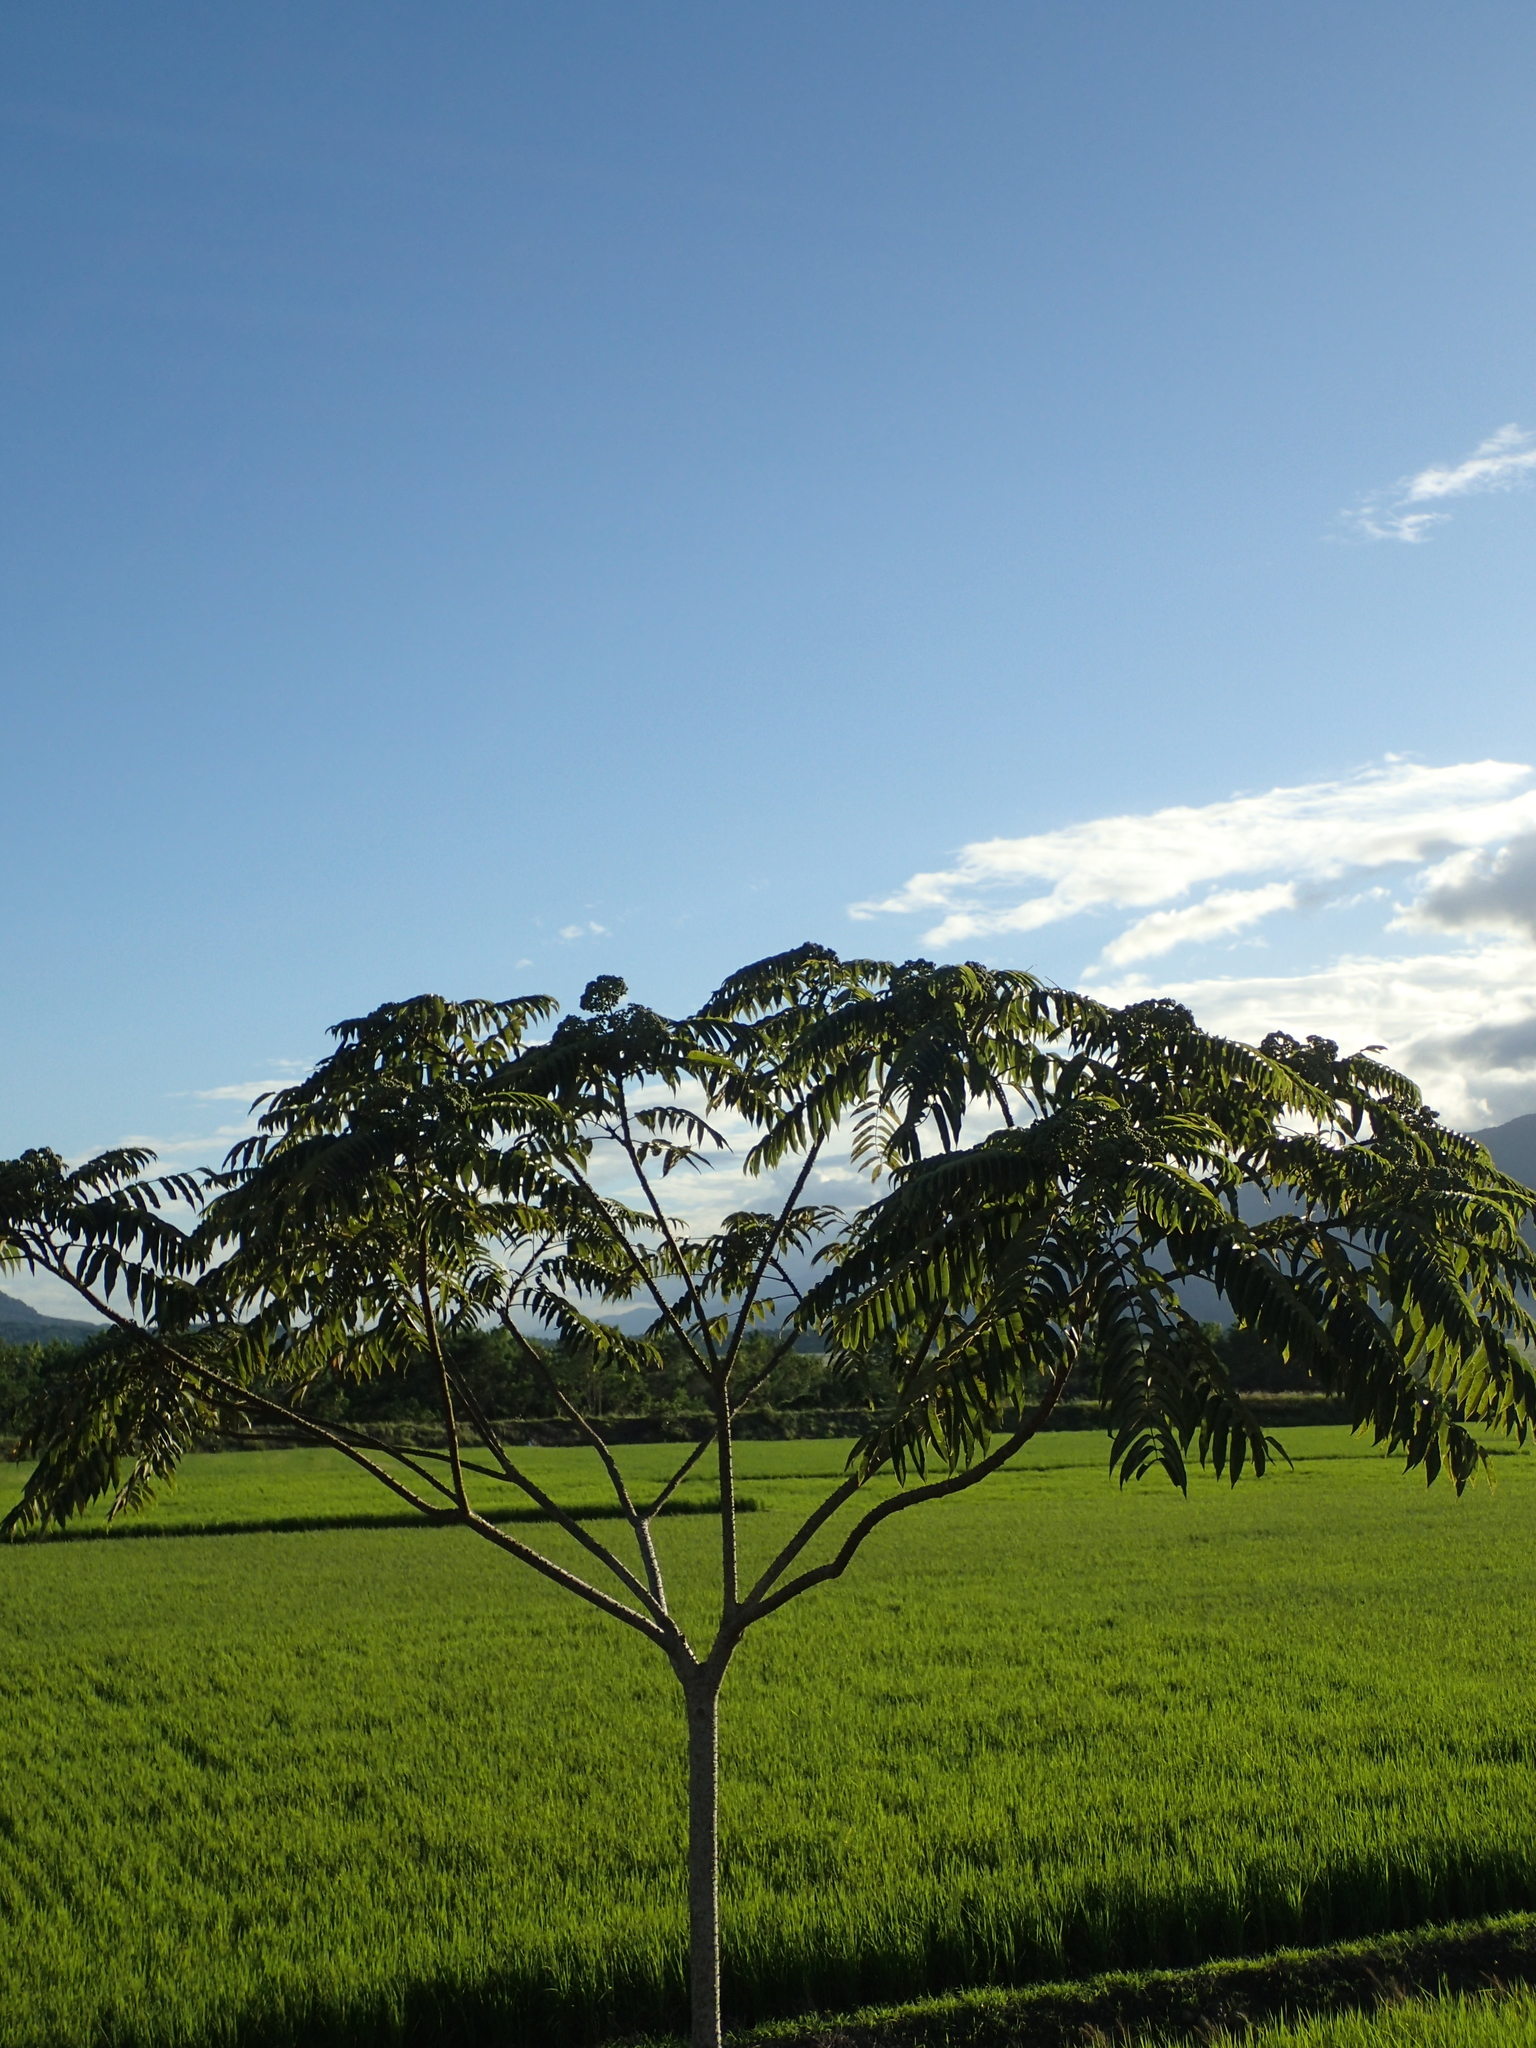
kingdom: Plantae
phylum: Tracheophyta
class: Magnoliopsida
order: Sapindales
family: Rutaceae
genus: Zanthoxylum
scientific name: Zanthoxylum ailanthoides
